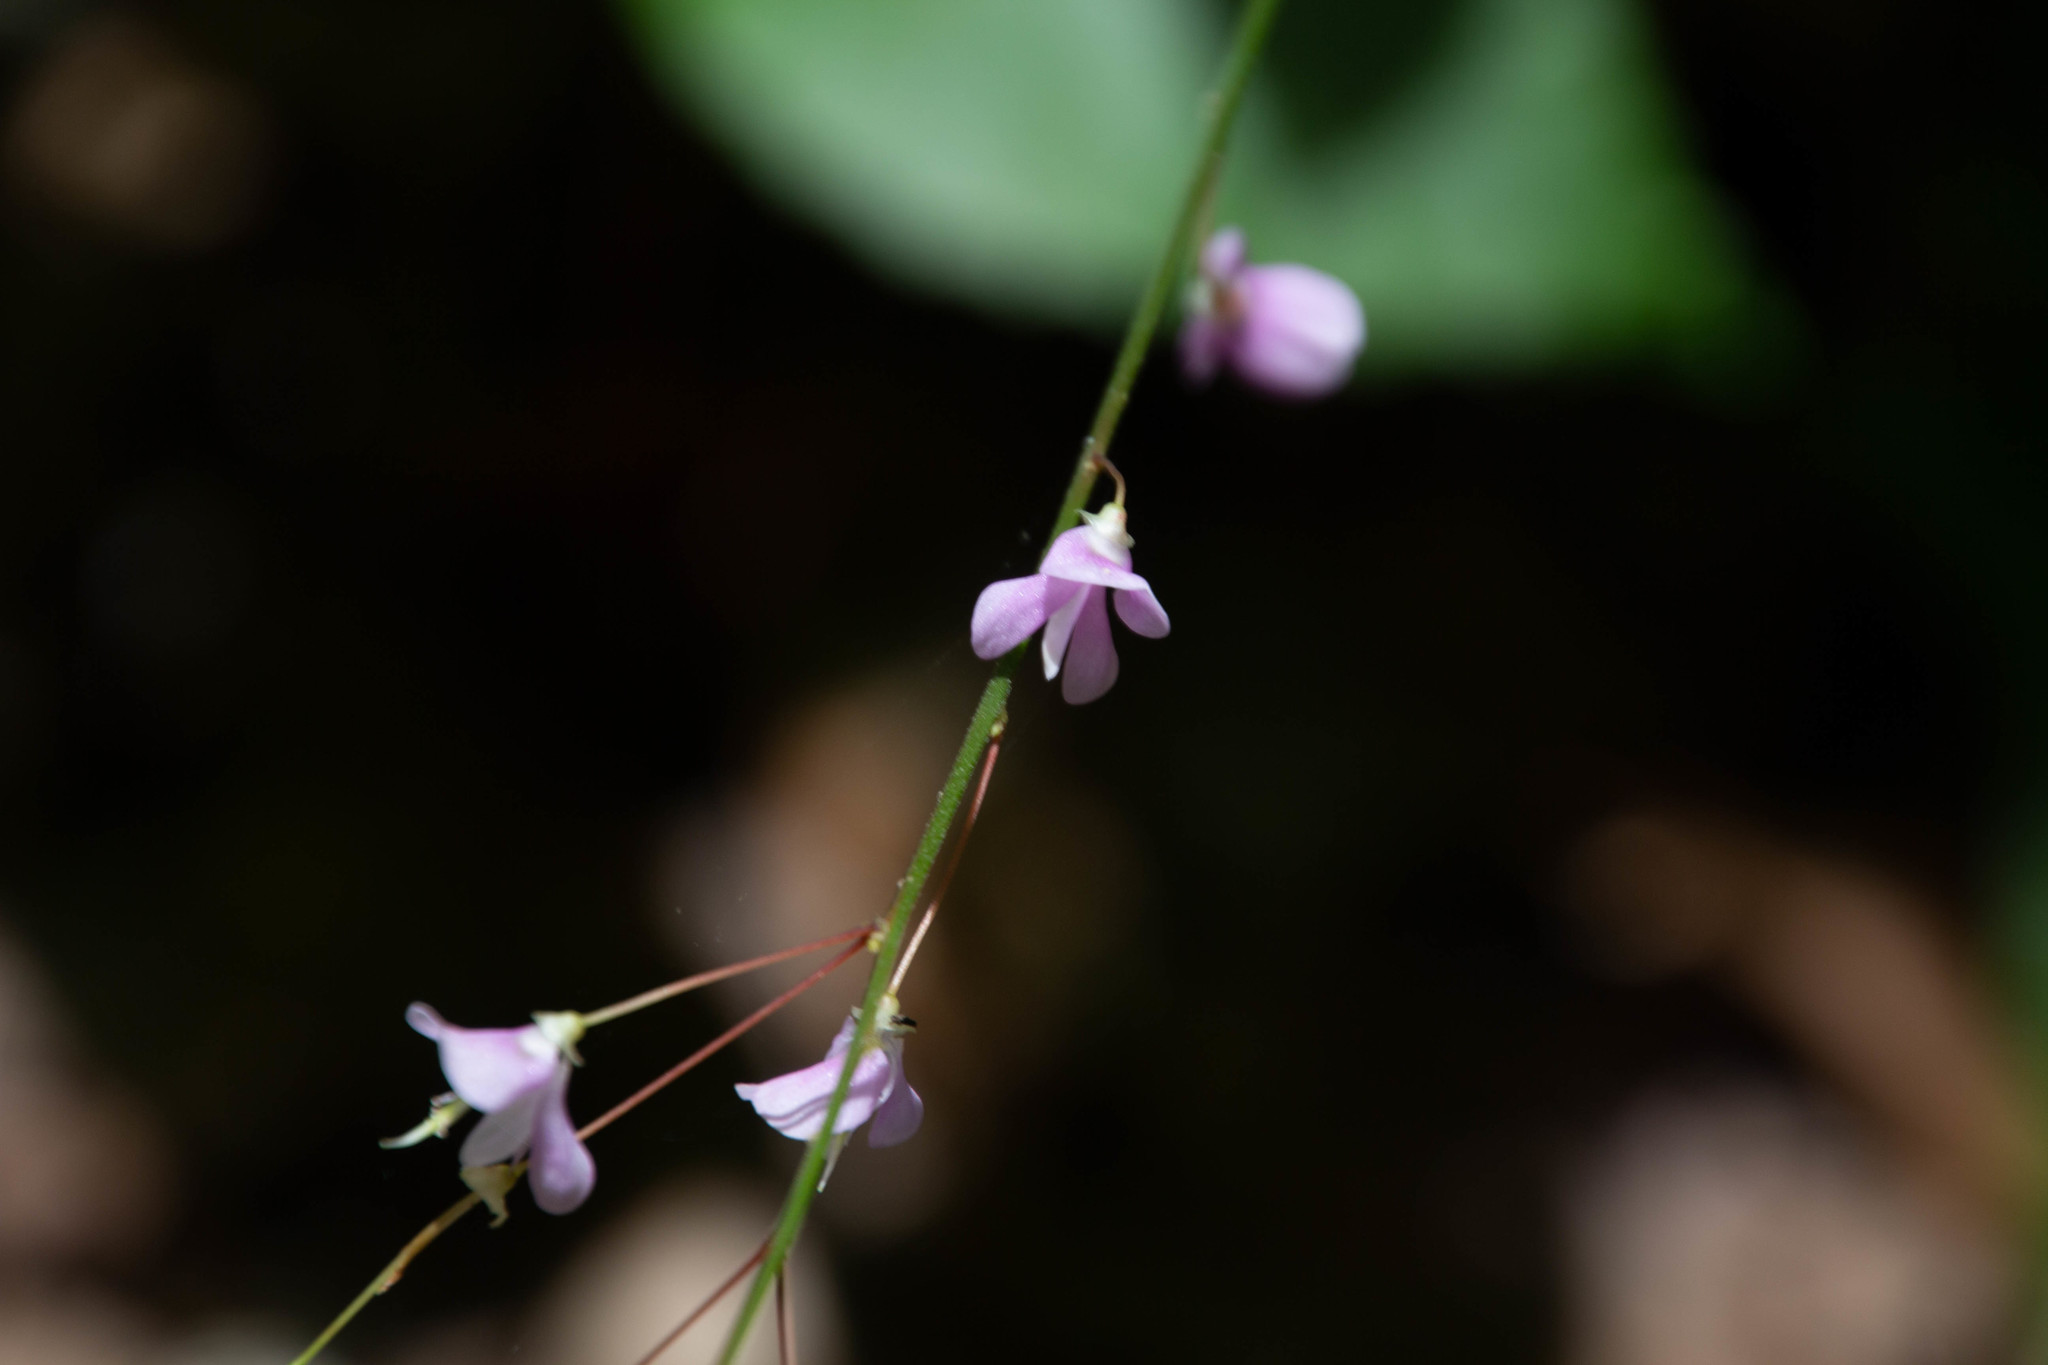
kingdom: Plantae
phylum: Tracheophyta
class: Magnoliopsida
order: Fabales
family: Fabaceae
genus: Hylodesmum
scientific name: Hylodesmum nudiflorum
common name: Bare-stemmed tick-trefoil
